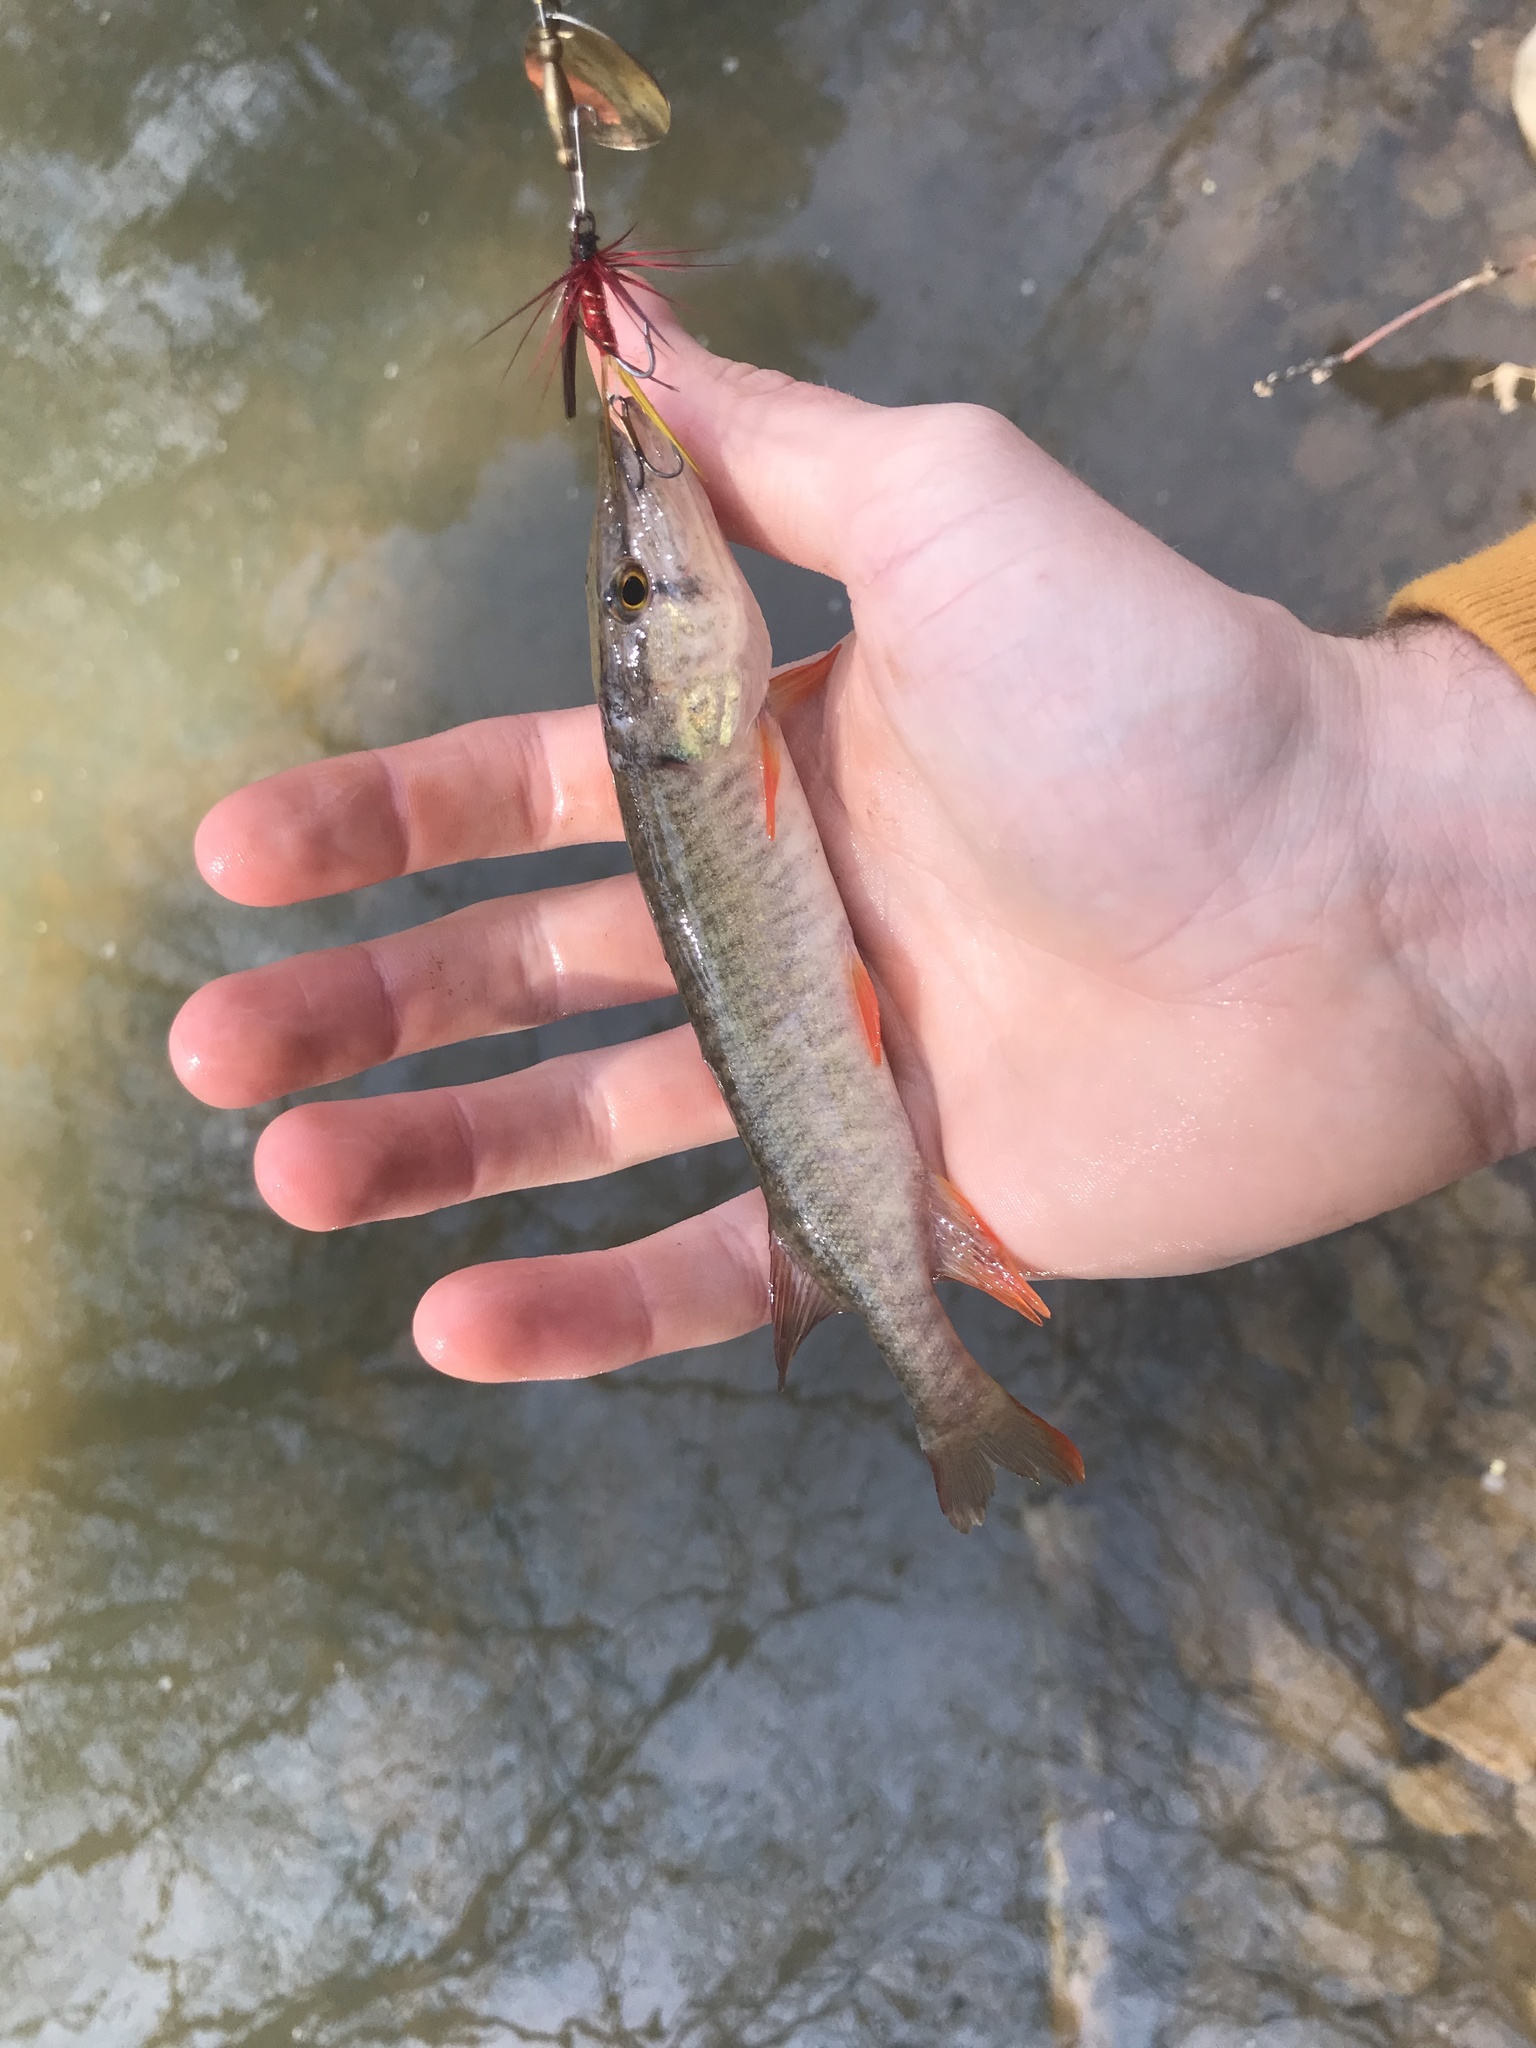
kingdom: Animalia
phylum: Chordata
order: Esociformes
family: Esocidae
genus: Esox
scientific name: Esox americanus
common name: Redfin pickerel
